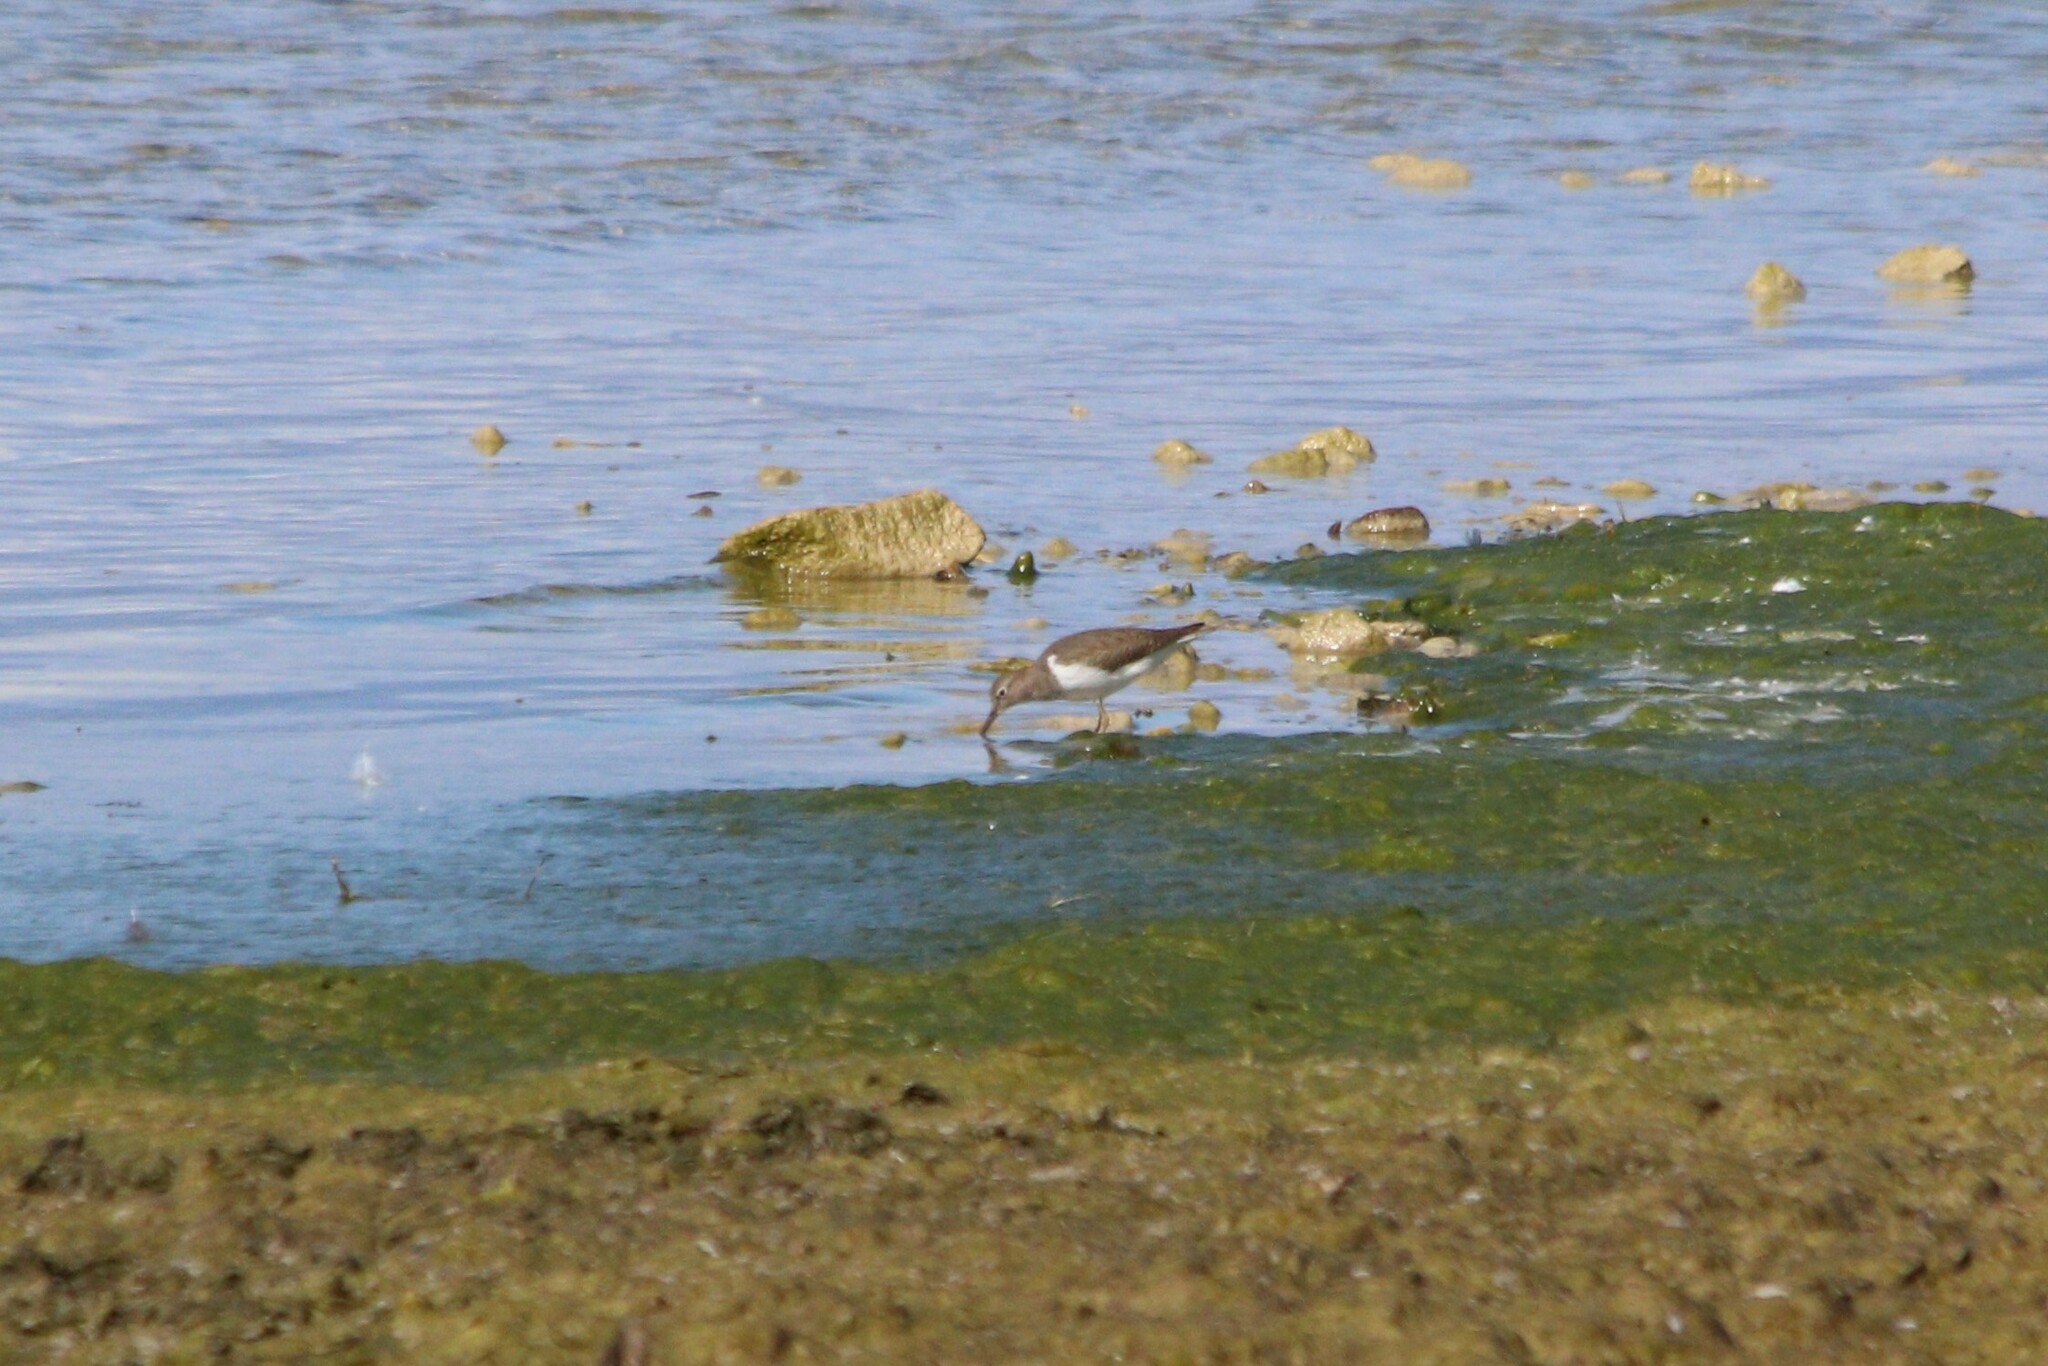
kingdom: Animalia
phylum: Chordata
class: Aves
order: Charadriiformes
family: Scolopacidae
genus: Actitis
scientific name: Actitis hypoleucos
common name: Common sandpiper
